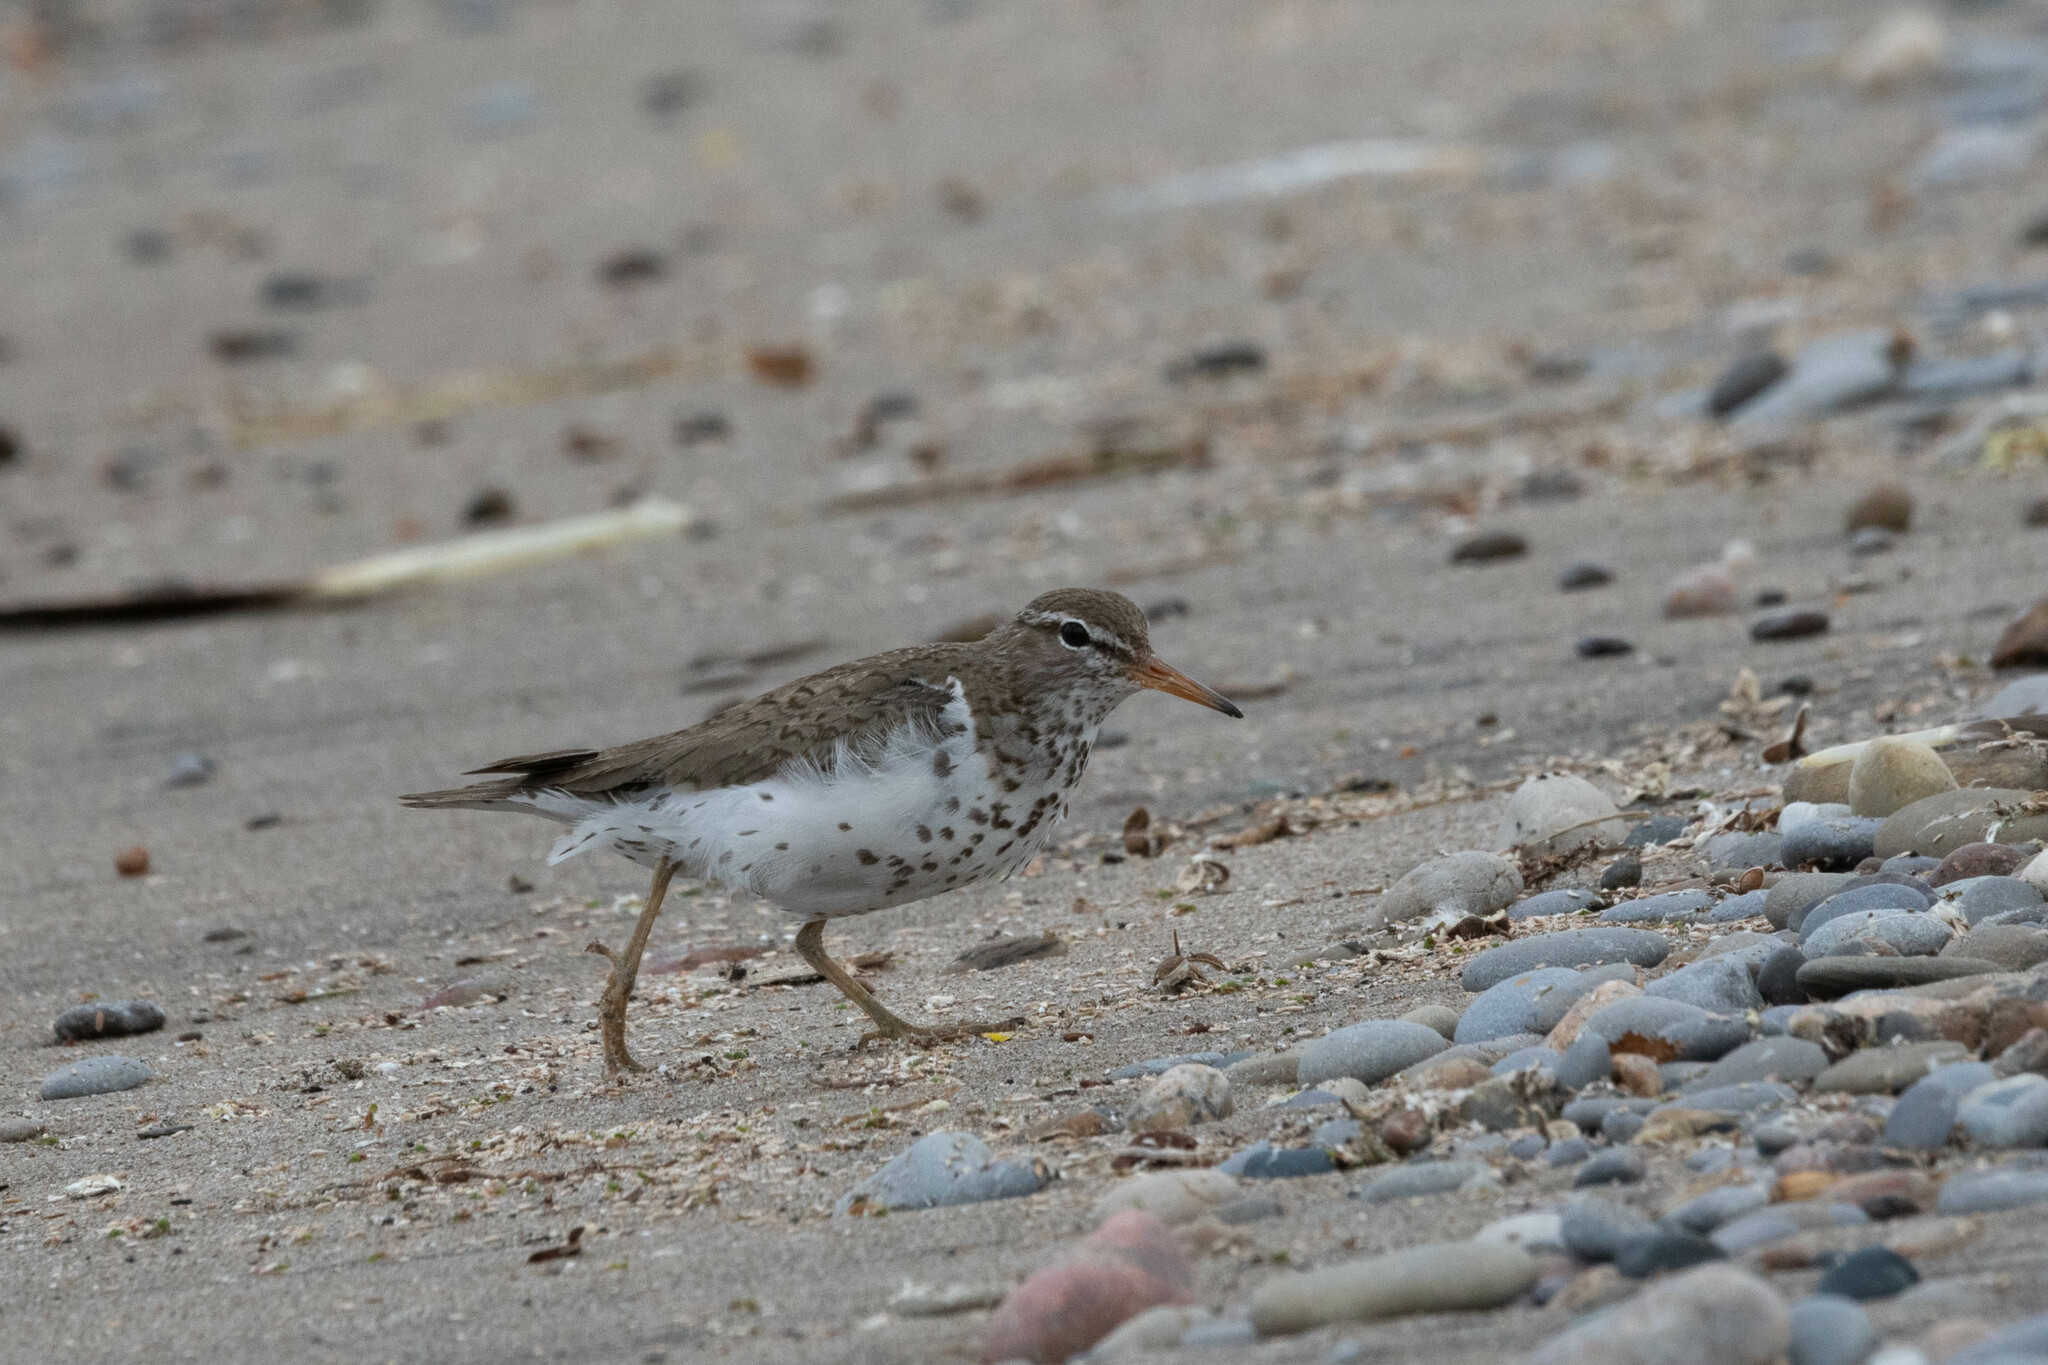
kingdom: Animalia
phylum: Chordata
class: Aves
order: Charadriiformes
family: Scolopacidae
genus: Actitis
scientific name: Actitis macularius
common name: Spotted sandpiper
